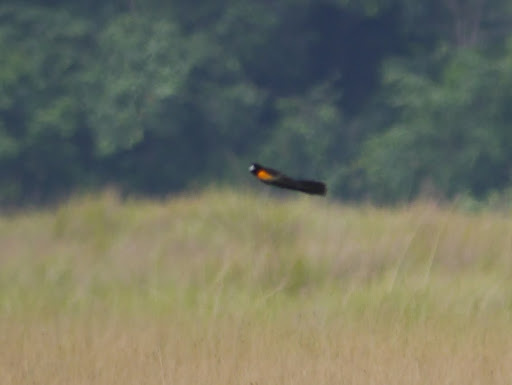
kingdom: Animalia
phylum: Chordata
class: Aves
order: Passeriformes
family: Ploceidae
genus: Euplectes
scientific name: Euplectes hartlaubi
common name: Marsh widowbird
